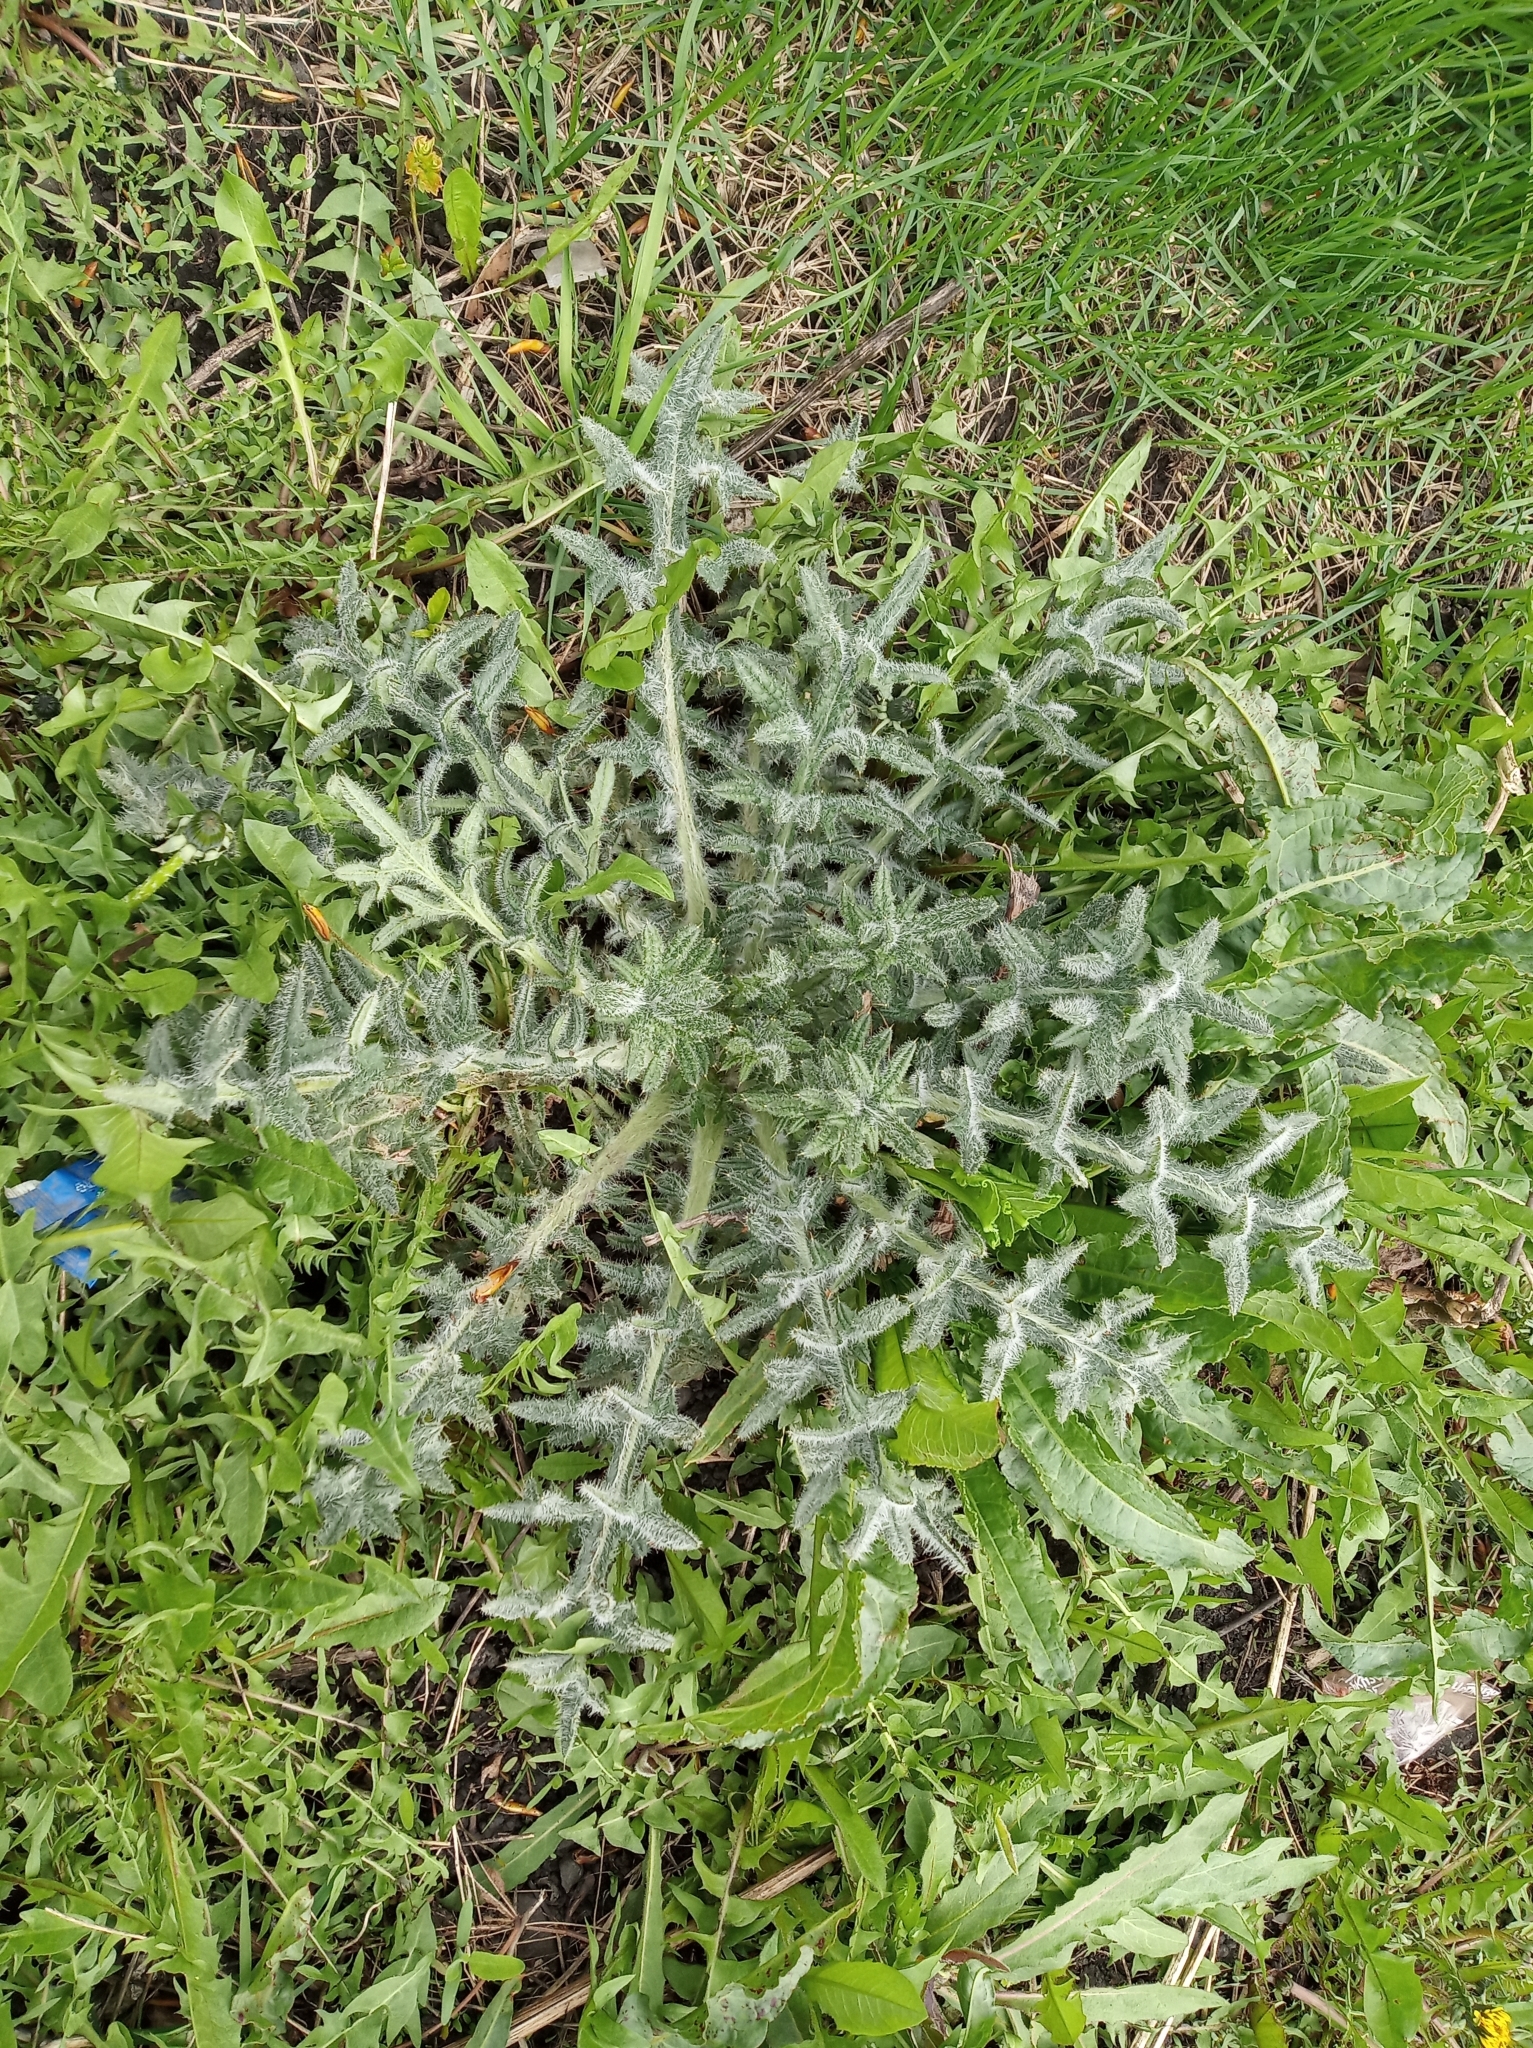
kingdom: Plantae
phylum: Tracheophyta
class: Magnoliopsida
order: Asterales
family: Asteraceae
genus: Cirsium
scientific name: Cirsium vulgare
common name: Bull thistle
